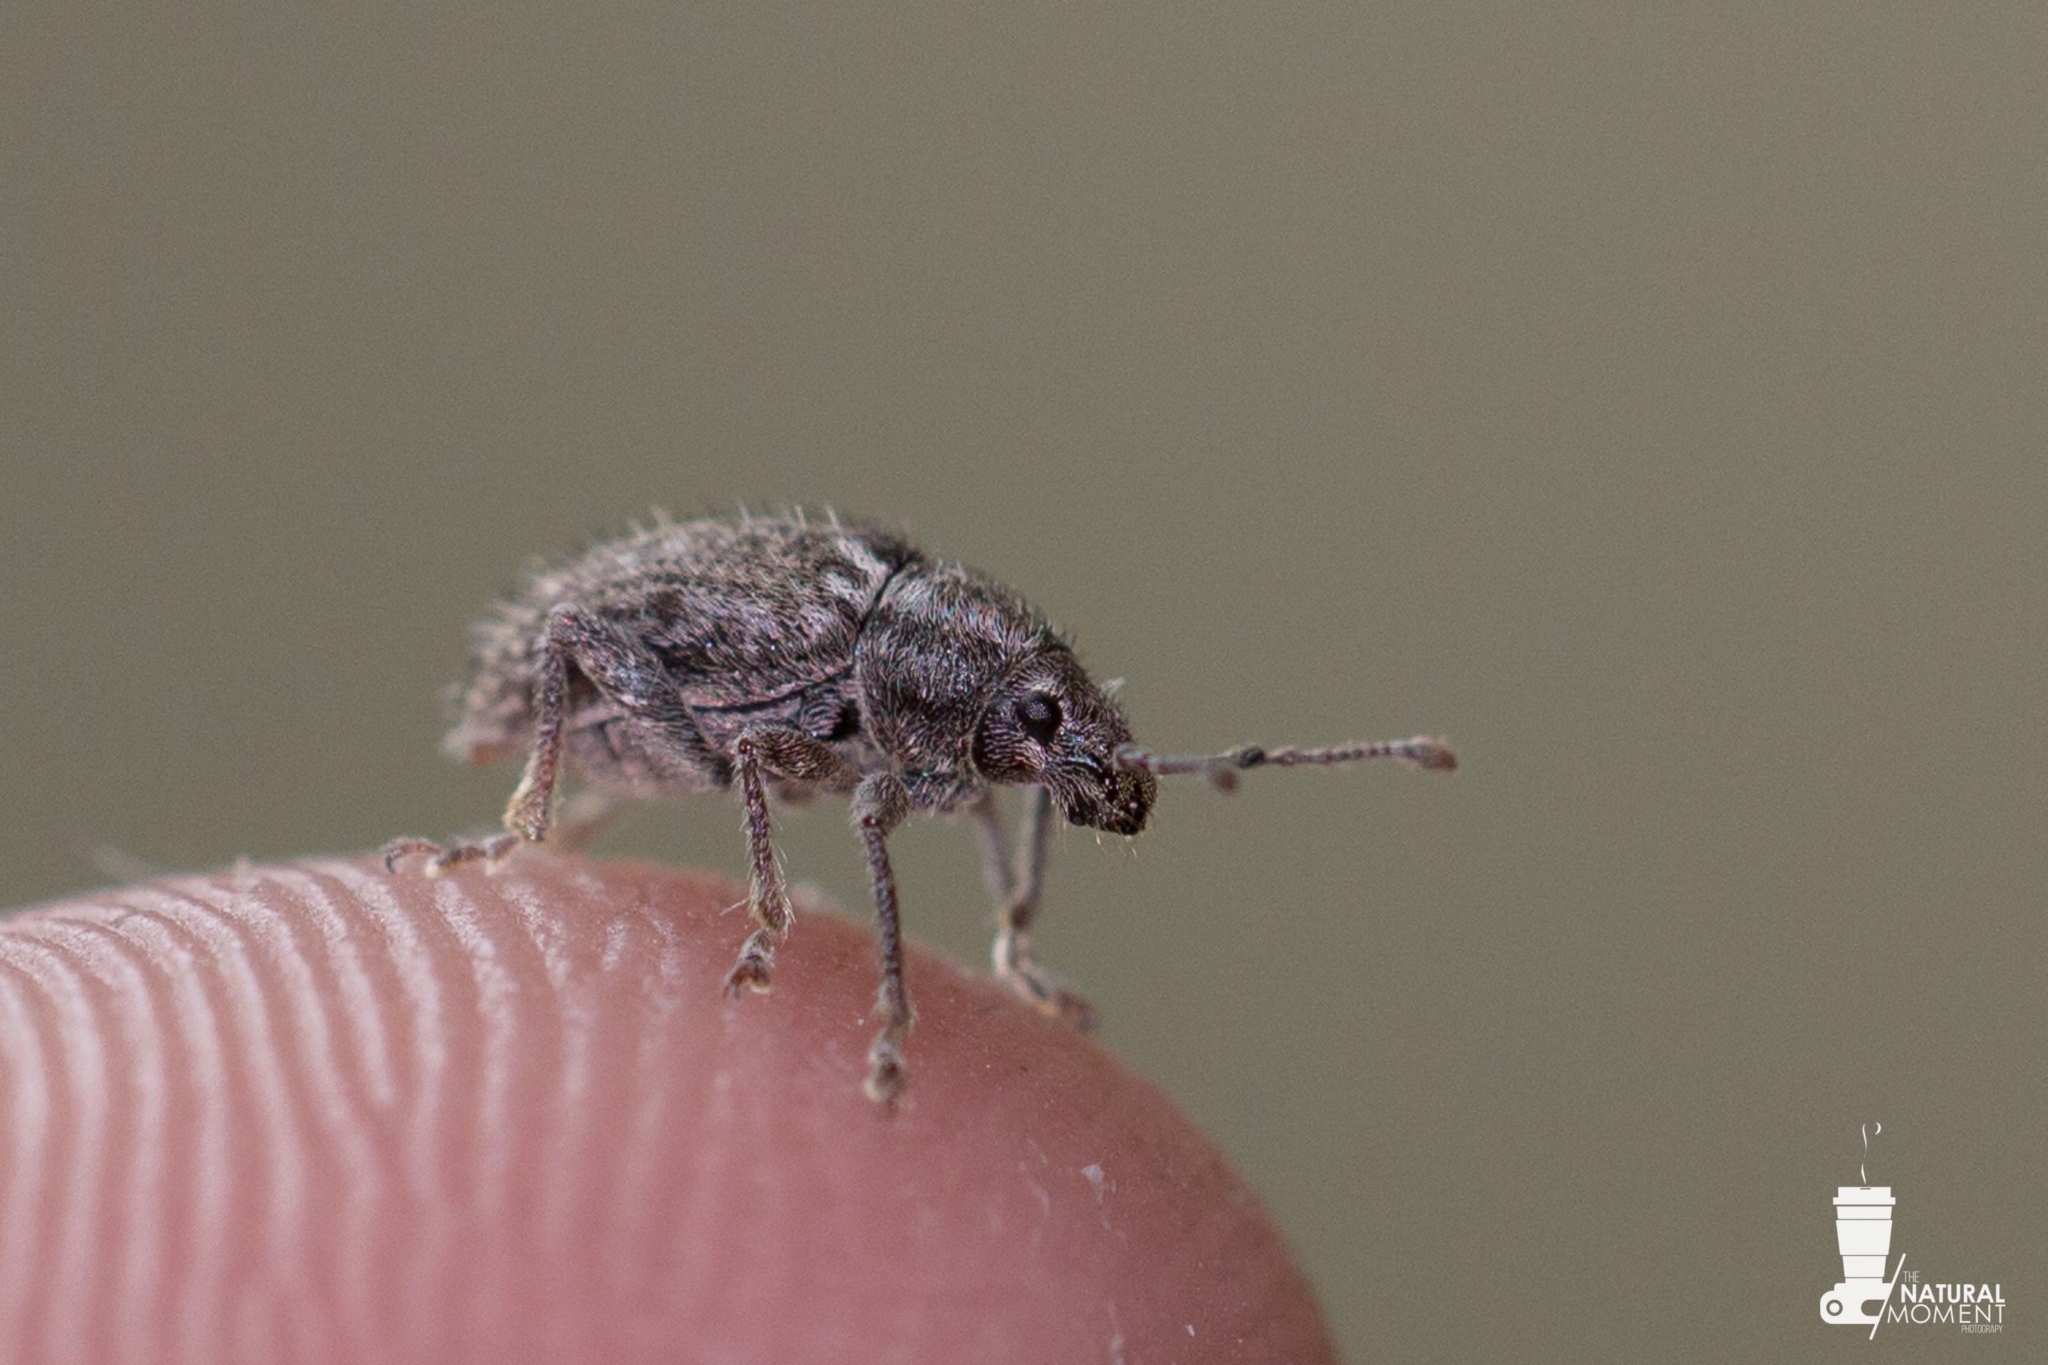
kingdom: Animalia
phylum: Arthropoda
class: Insecta
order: Coleoptera
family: Curculionidae
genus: Amphideritus
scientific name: Amphideritus puberulus
